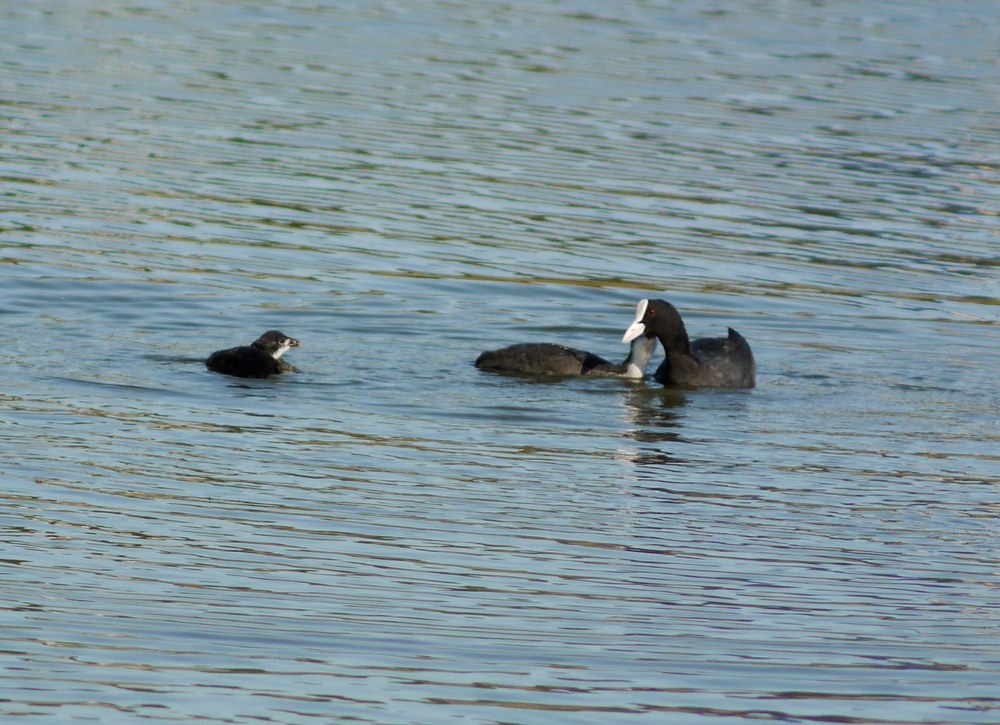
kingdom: Animalia
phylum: Chordata
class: Aves
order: Gruiformes
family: Rallidae
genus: Fulica
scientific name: Fulica atra
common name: Eurasian coot
